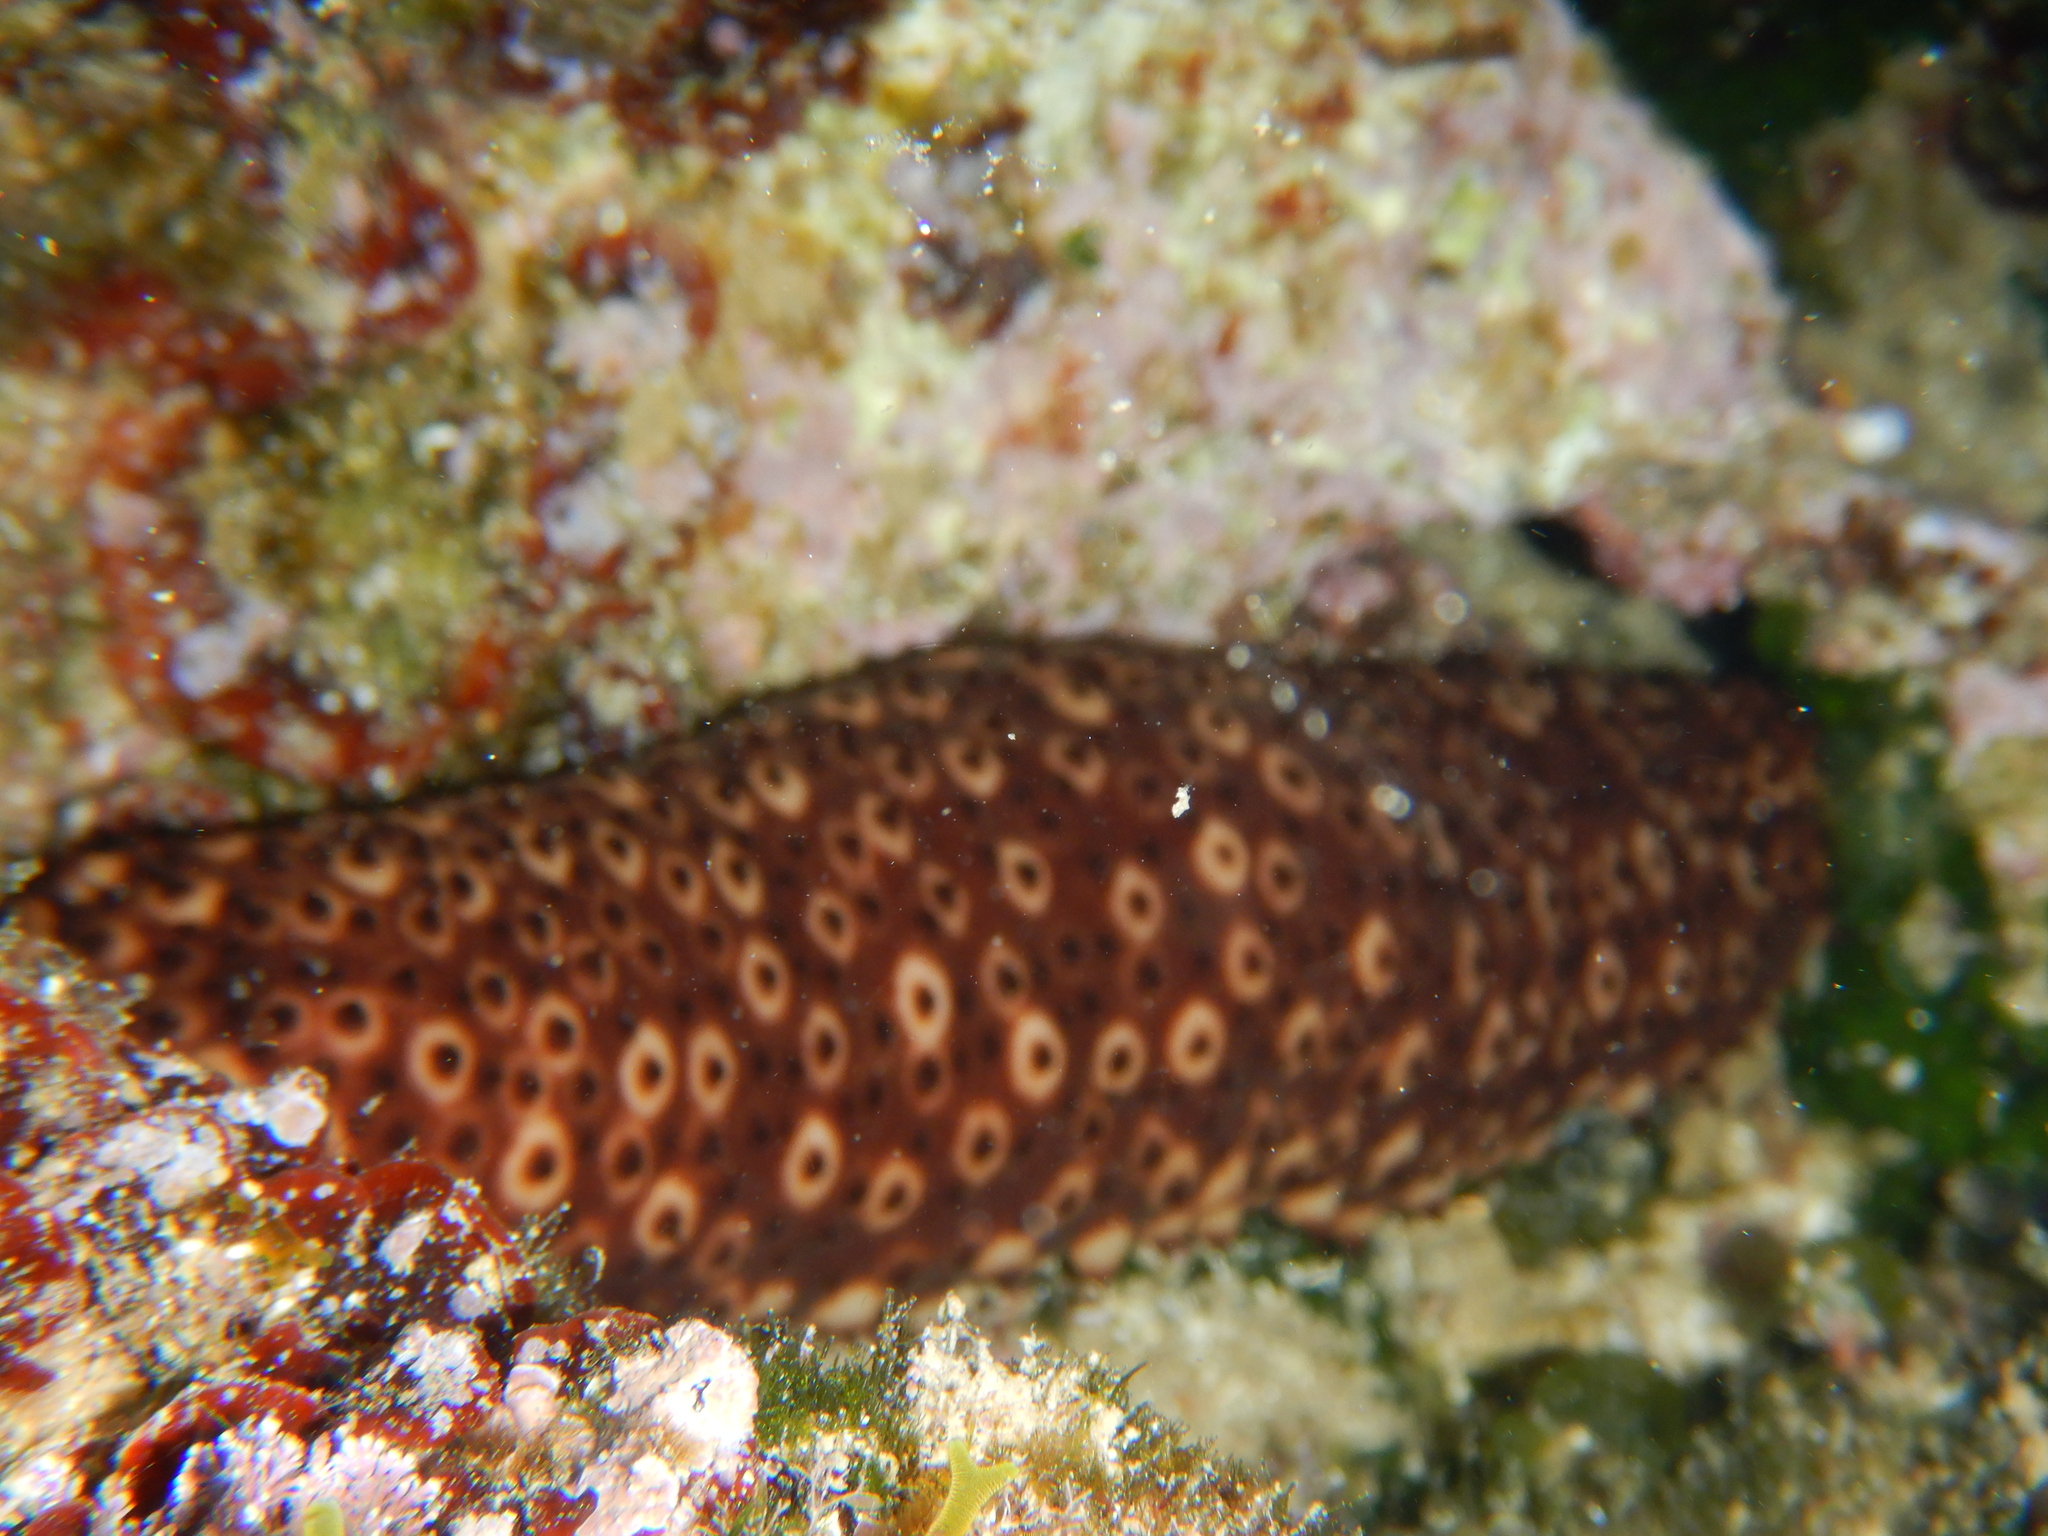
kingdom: Animalia
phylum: Echinodermata
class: Holothuroidea
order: Holothuriida
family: Holothuriidae
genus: Holothuria
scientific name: Holothuria sanctori
